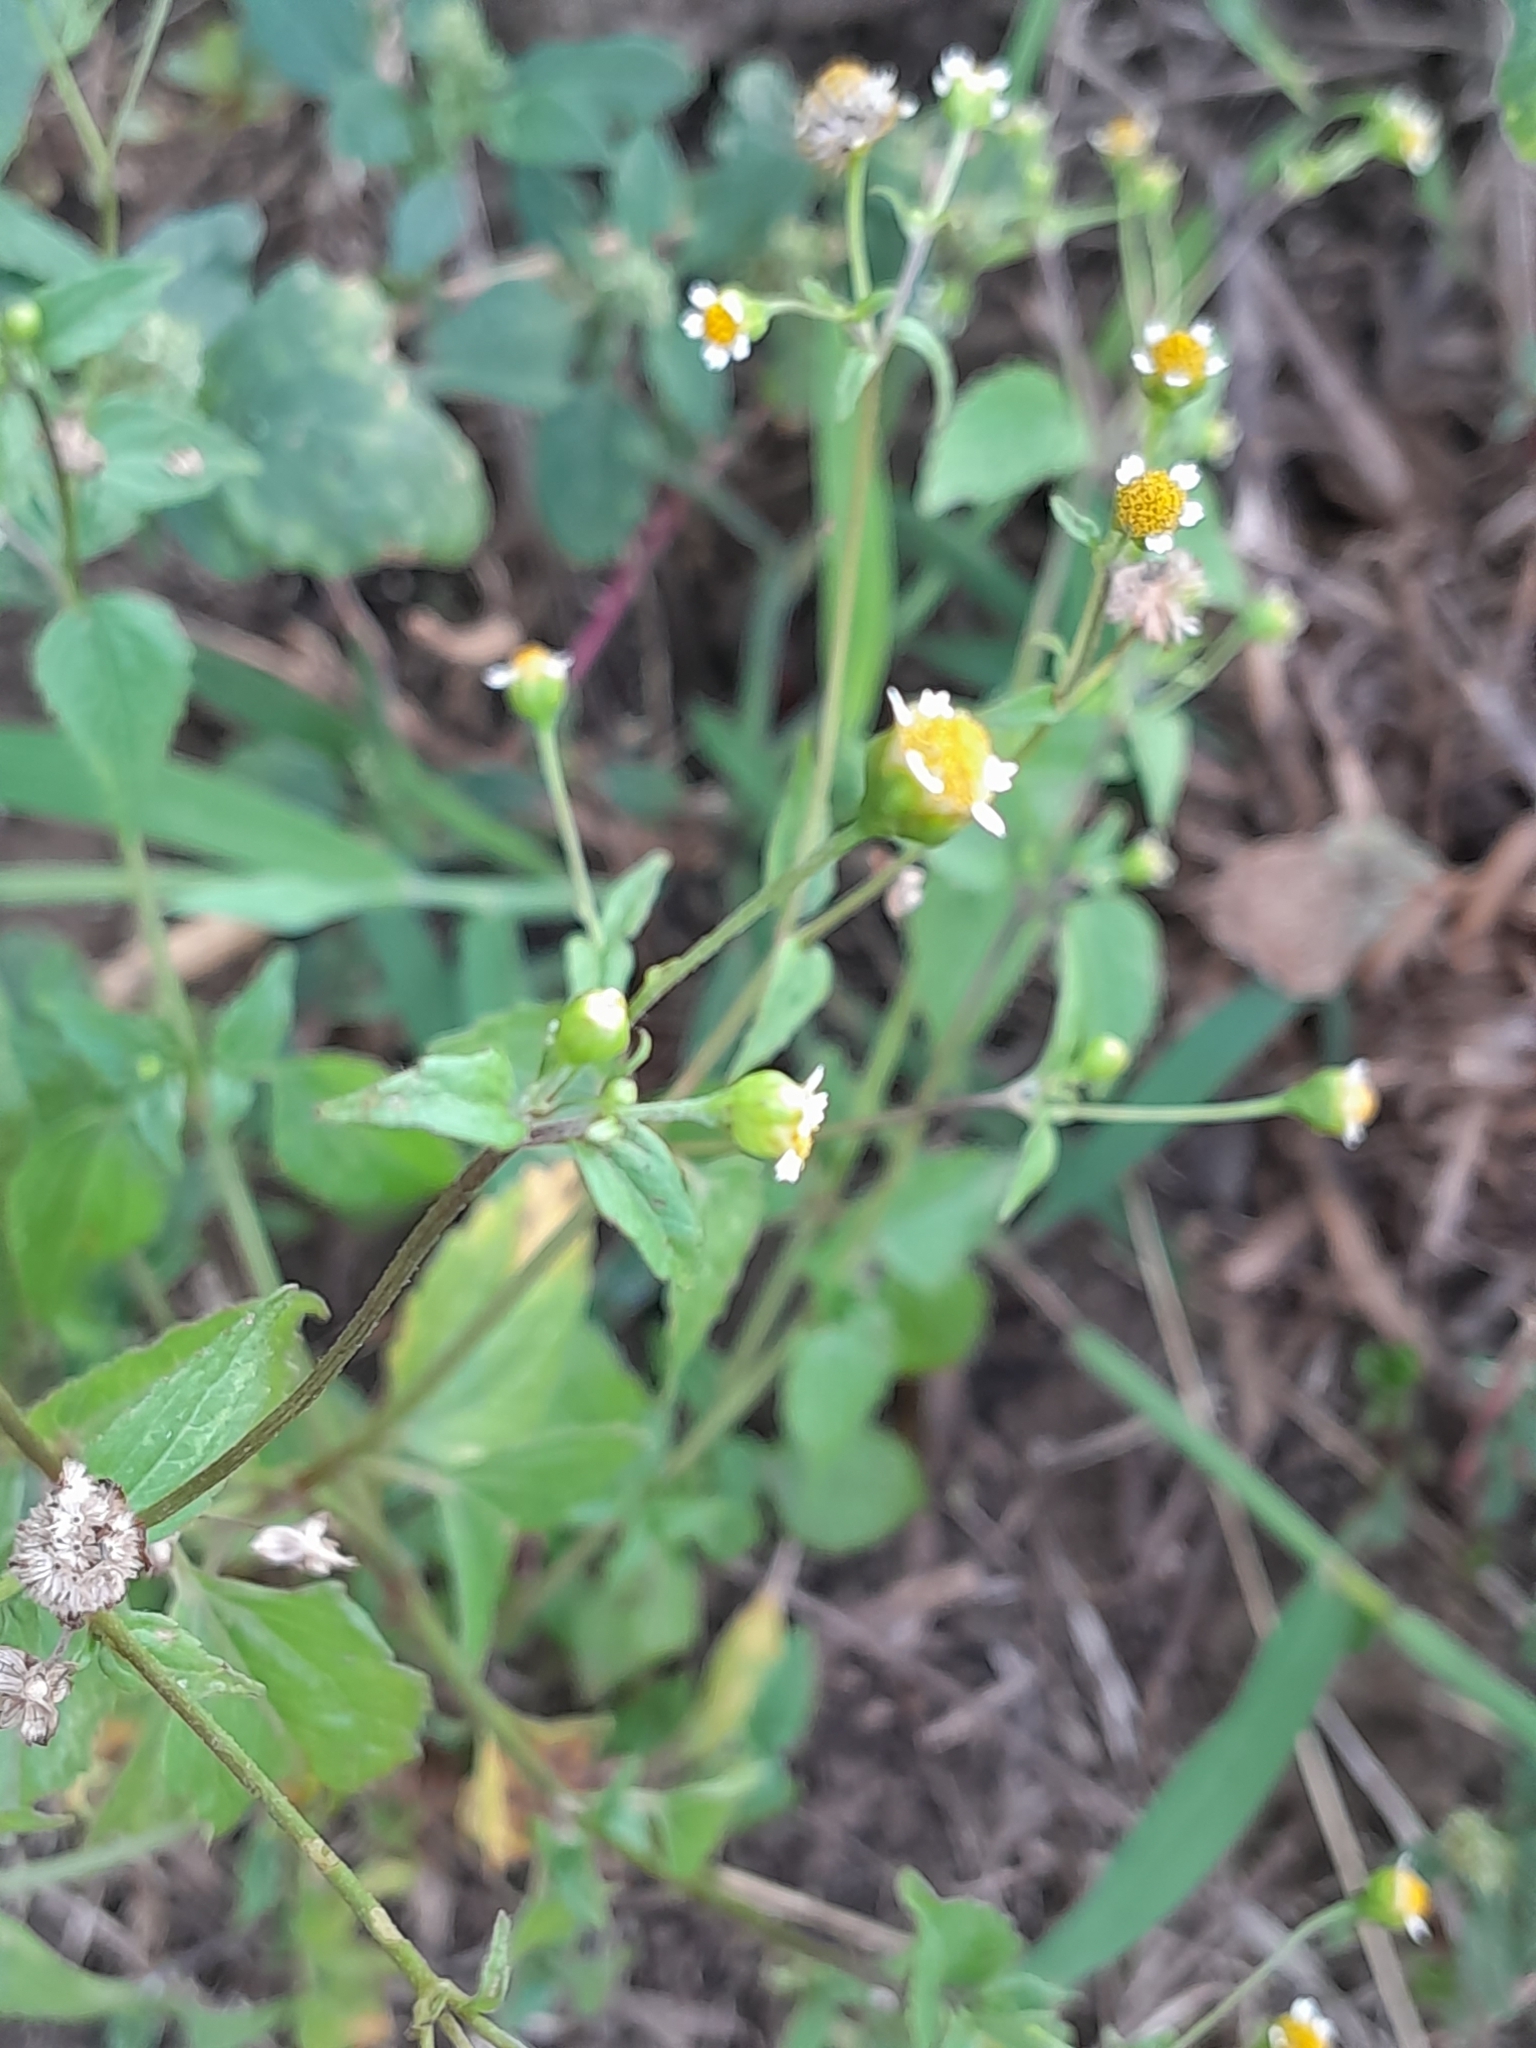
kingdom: Plantae
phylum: Tracheophyta
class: Magnoliopsida
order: Asterales
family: Asteraceae
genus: Galinsoga
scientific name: Galinsoga parviflora
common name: Gallant soldier
